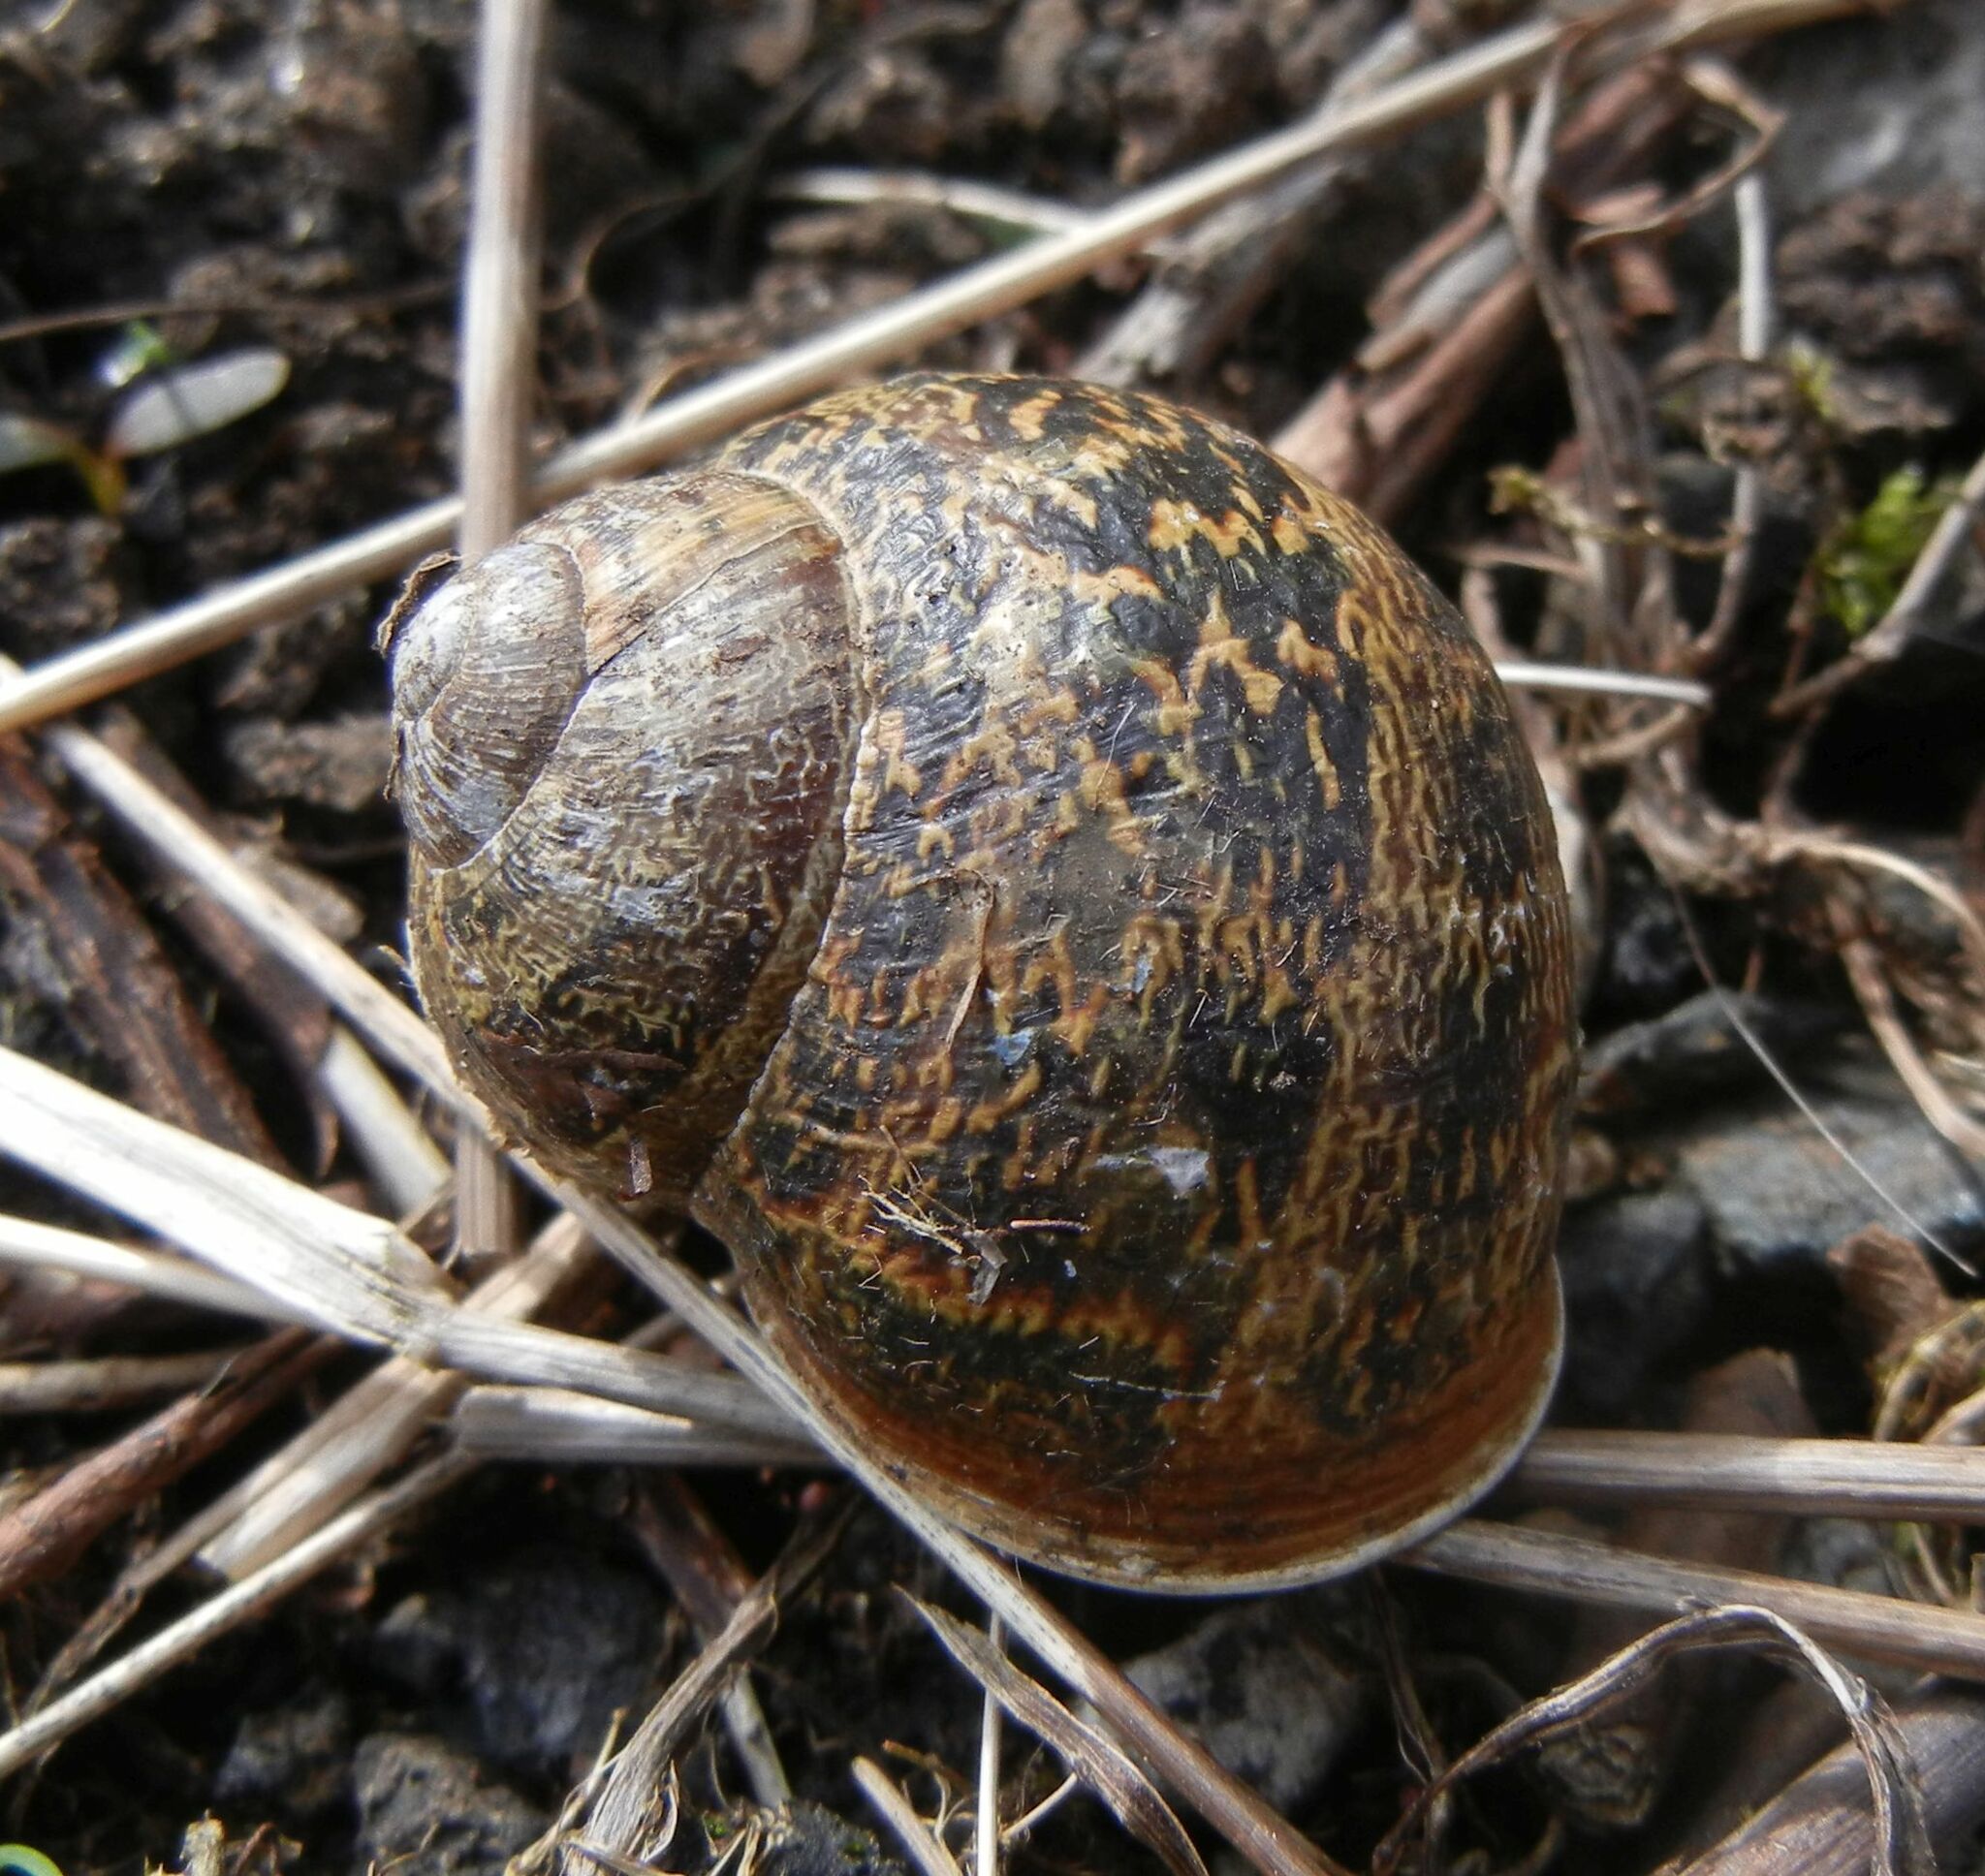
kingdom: Animalia
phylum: Mollusca
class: Gastropoda
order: Stylommatophora
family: Helicidae
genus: Cornu
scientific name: Cornu aspersum
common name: Brown garden snail
